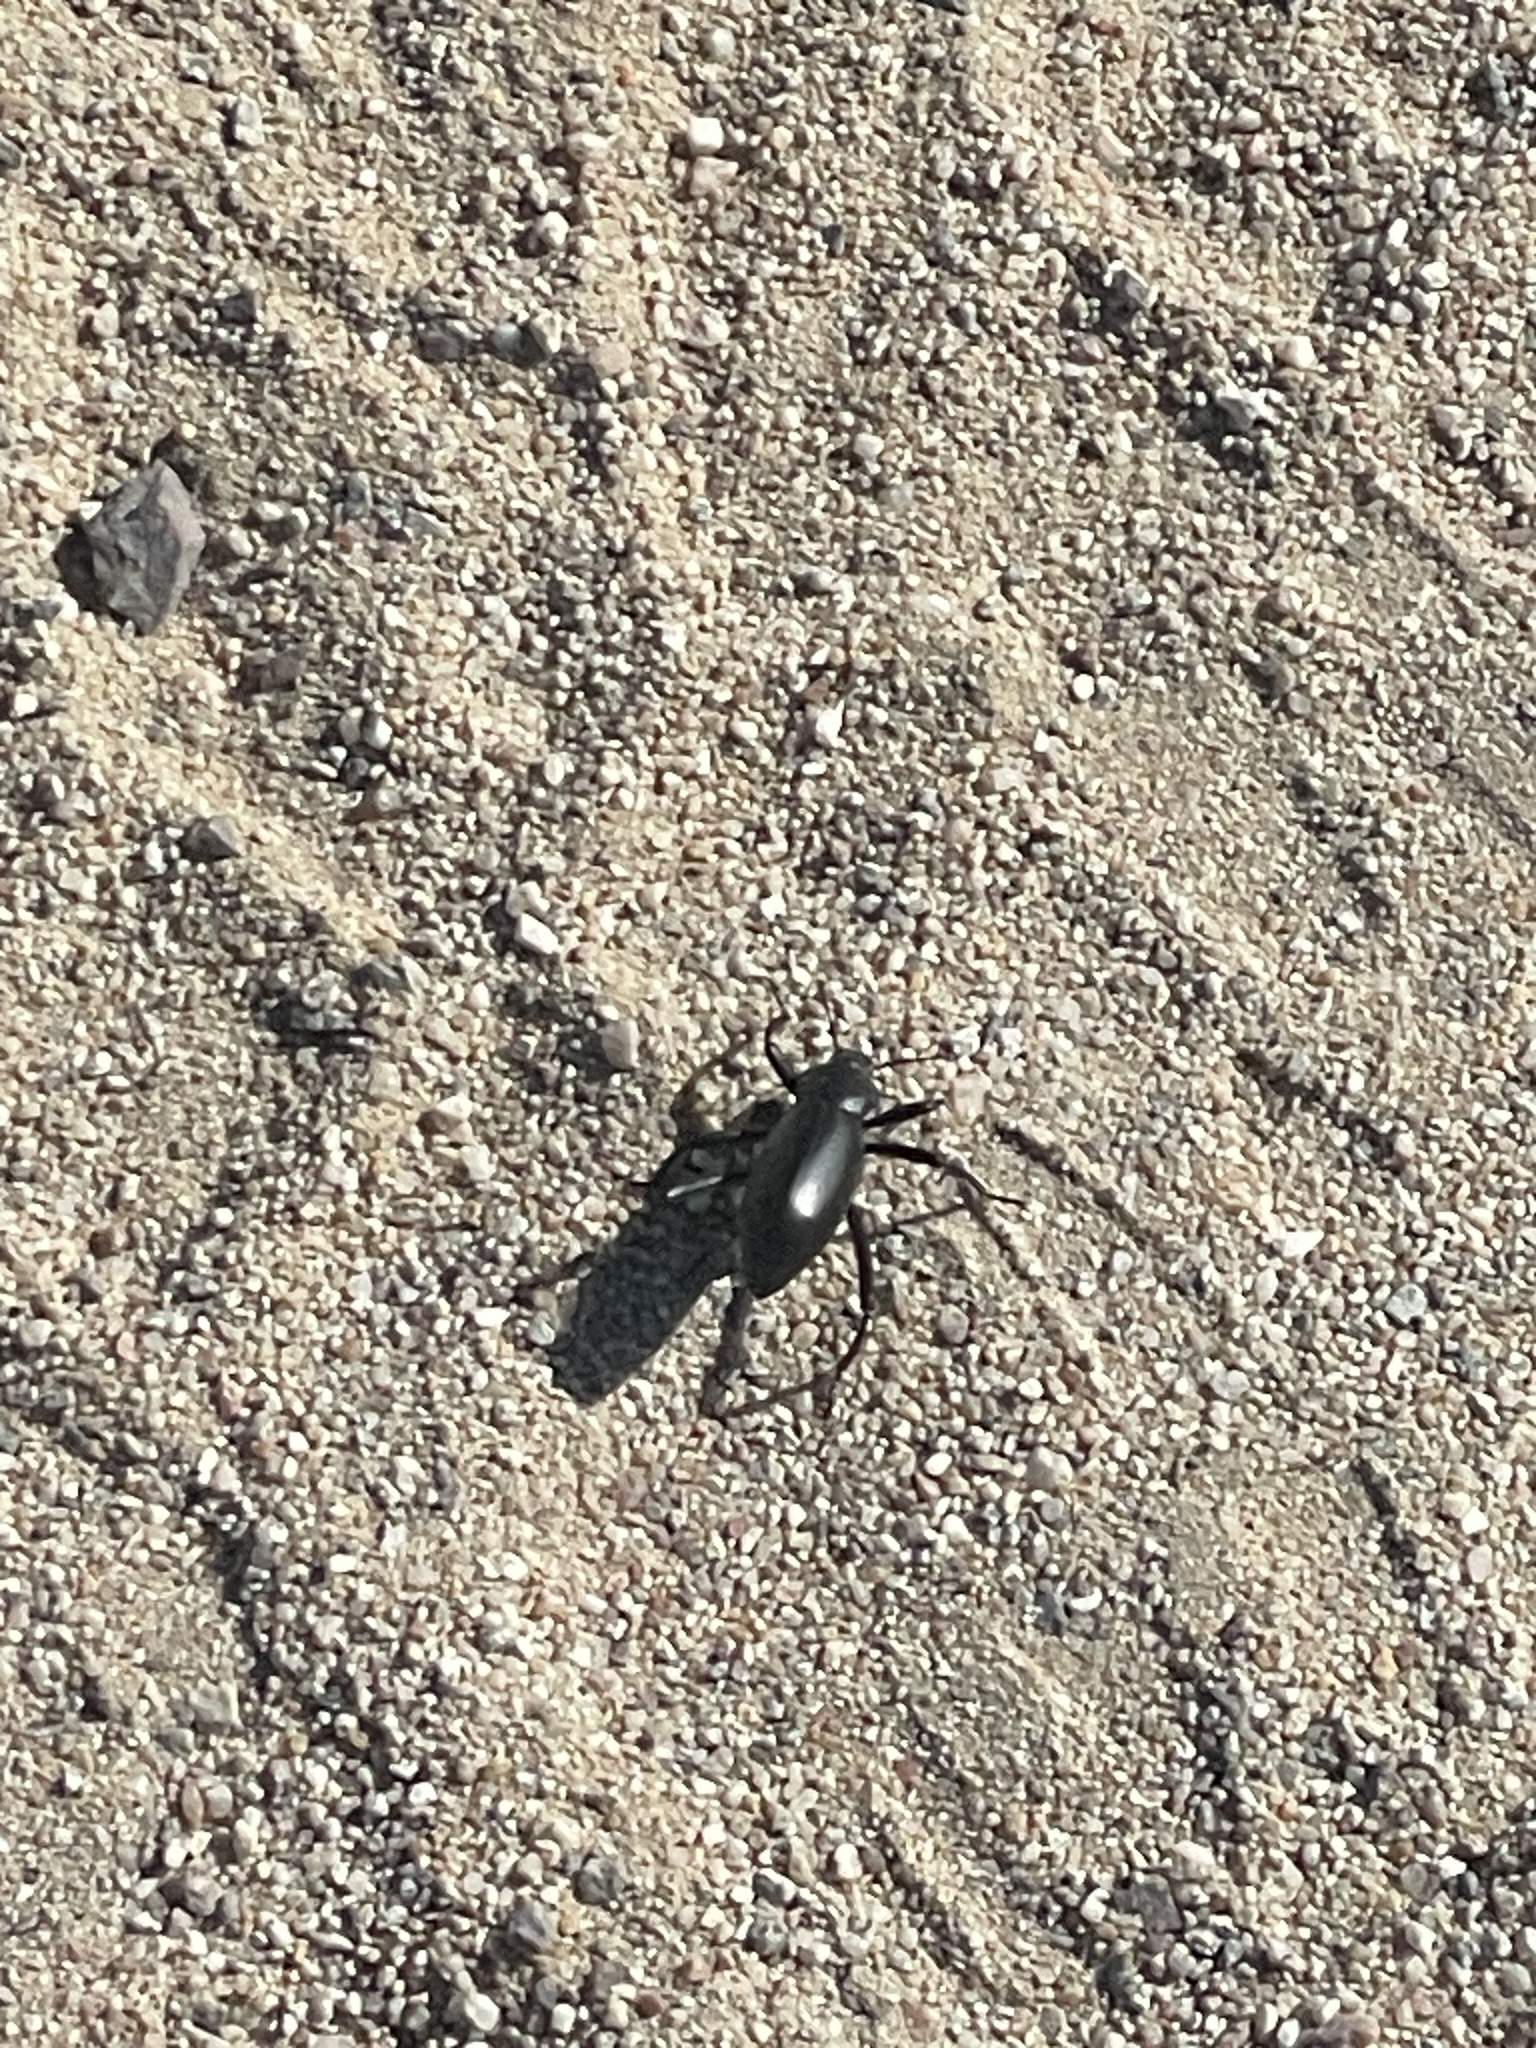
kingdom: Animalia
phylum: Arthropoda
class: Insecta
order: Coleoptera
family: Tenebrionidae
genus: Eleodes
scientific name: Eleodes armata
